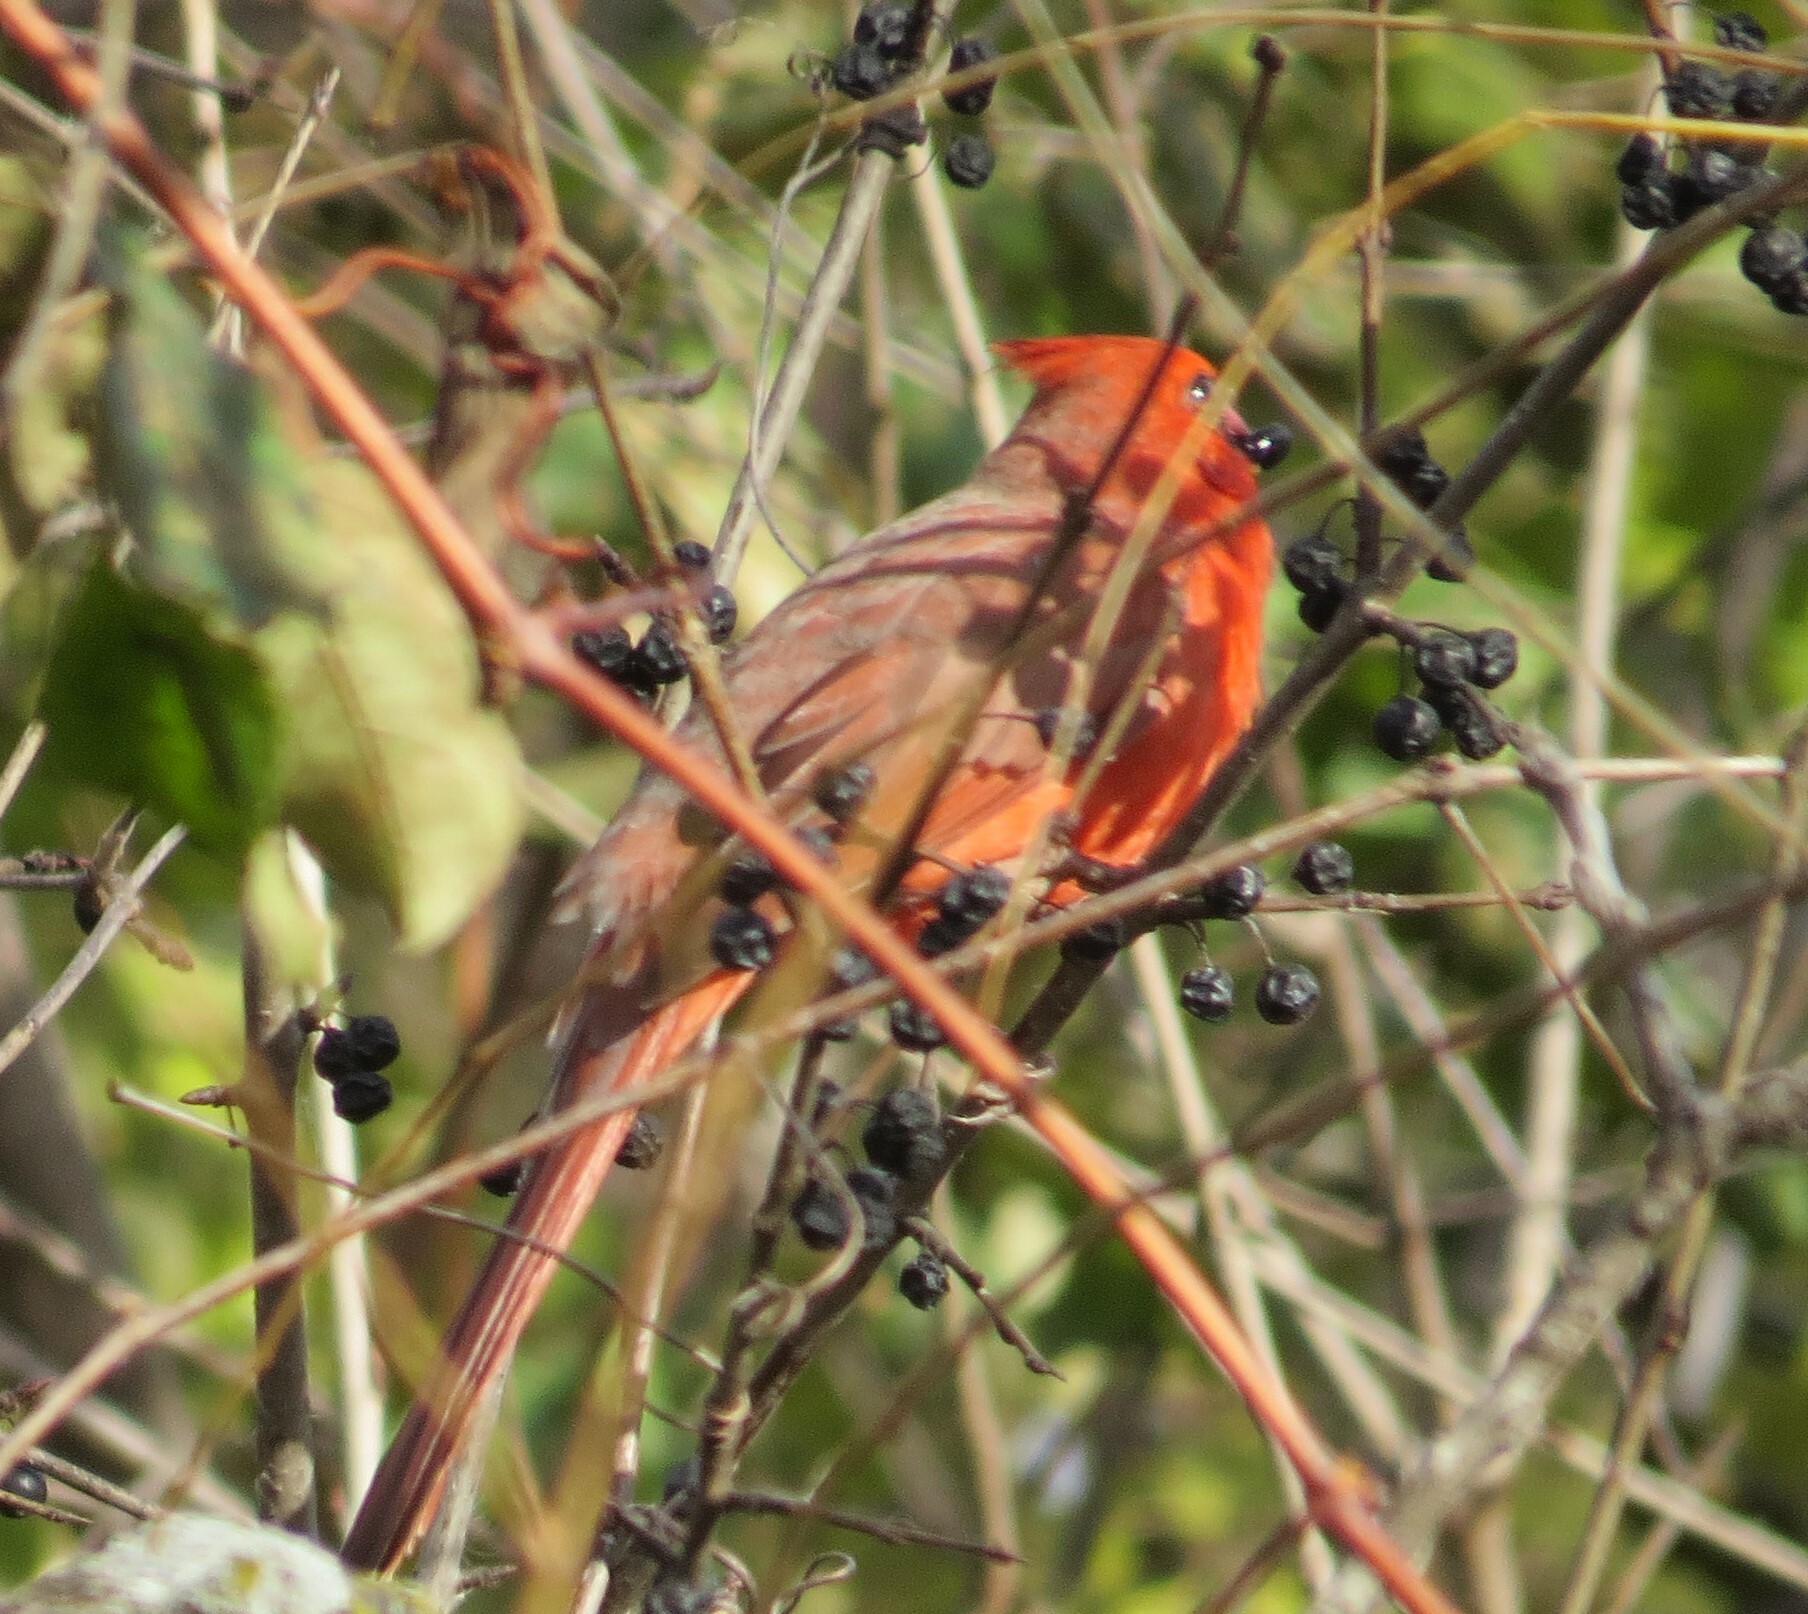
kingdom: Animalia
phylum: Chordata
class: Aves
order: Passeriformes
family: Cardinalidae
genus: Cardinalis
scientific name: Cardinalis cardinalis
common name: Northern cardinal
